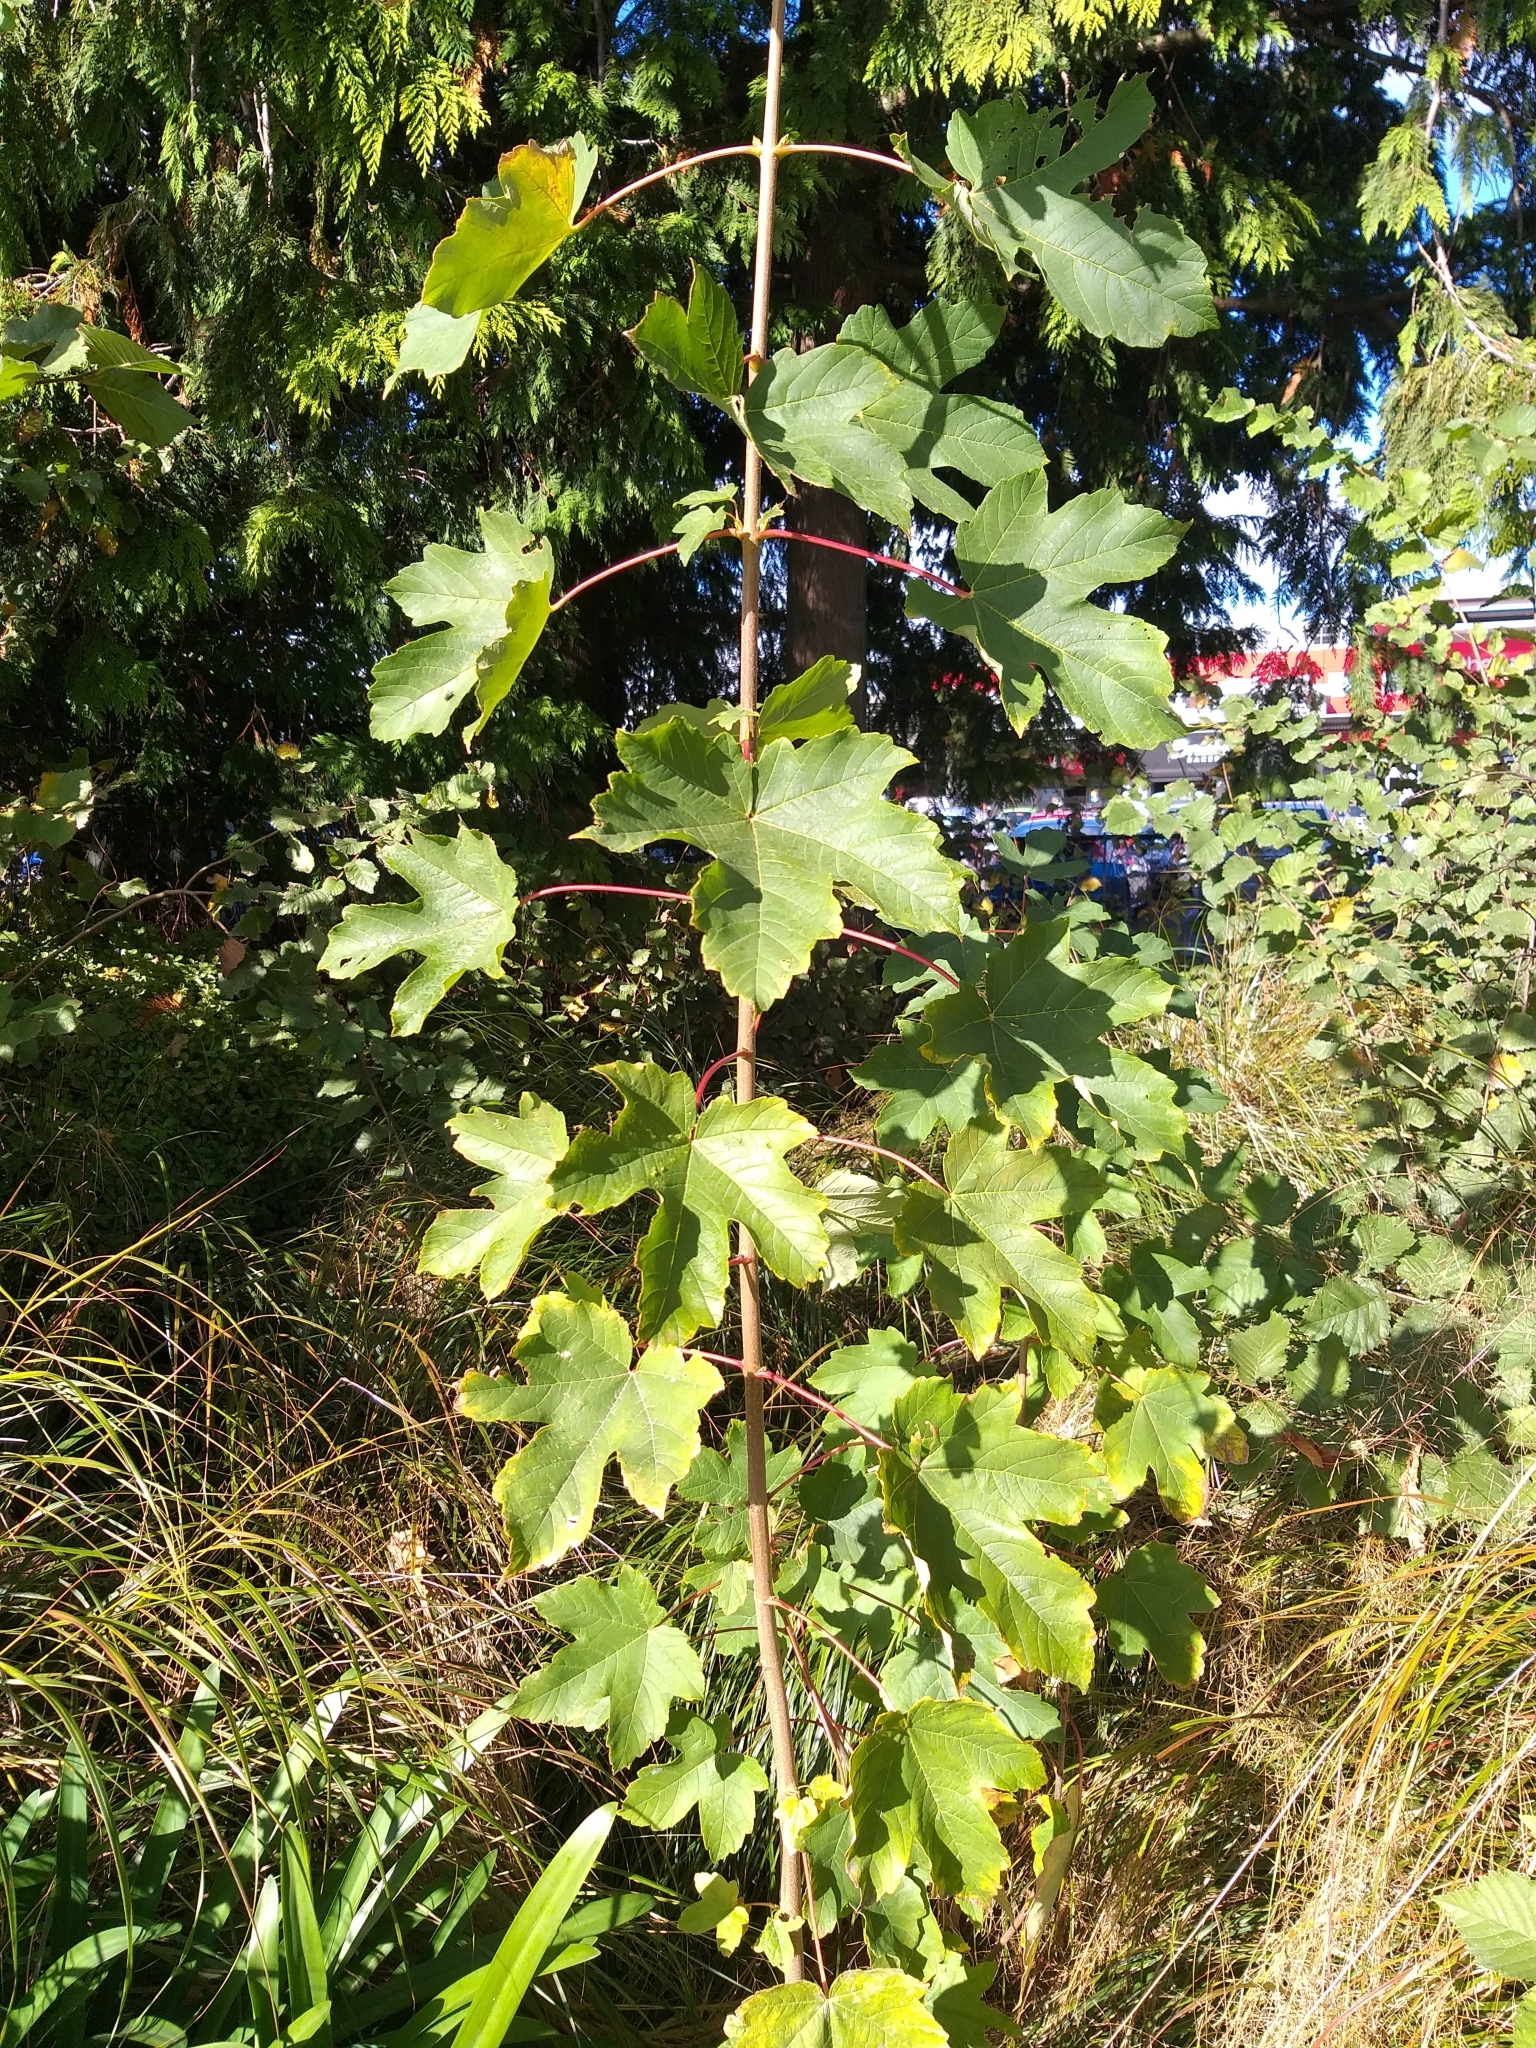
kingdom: Plantae
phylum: Tracheophyta
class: Magnoliopsida
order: Sapindales
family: Sapindaceae
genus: Acer
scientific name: Acer pseudoplatanus
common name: Sycamore
